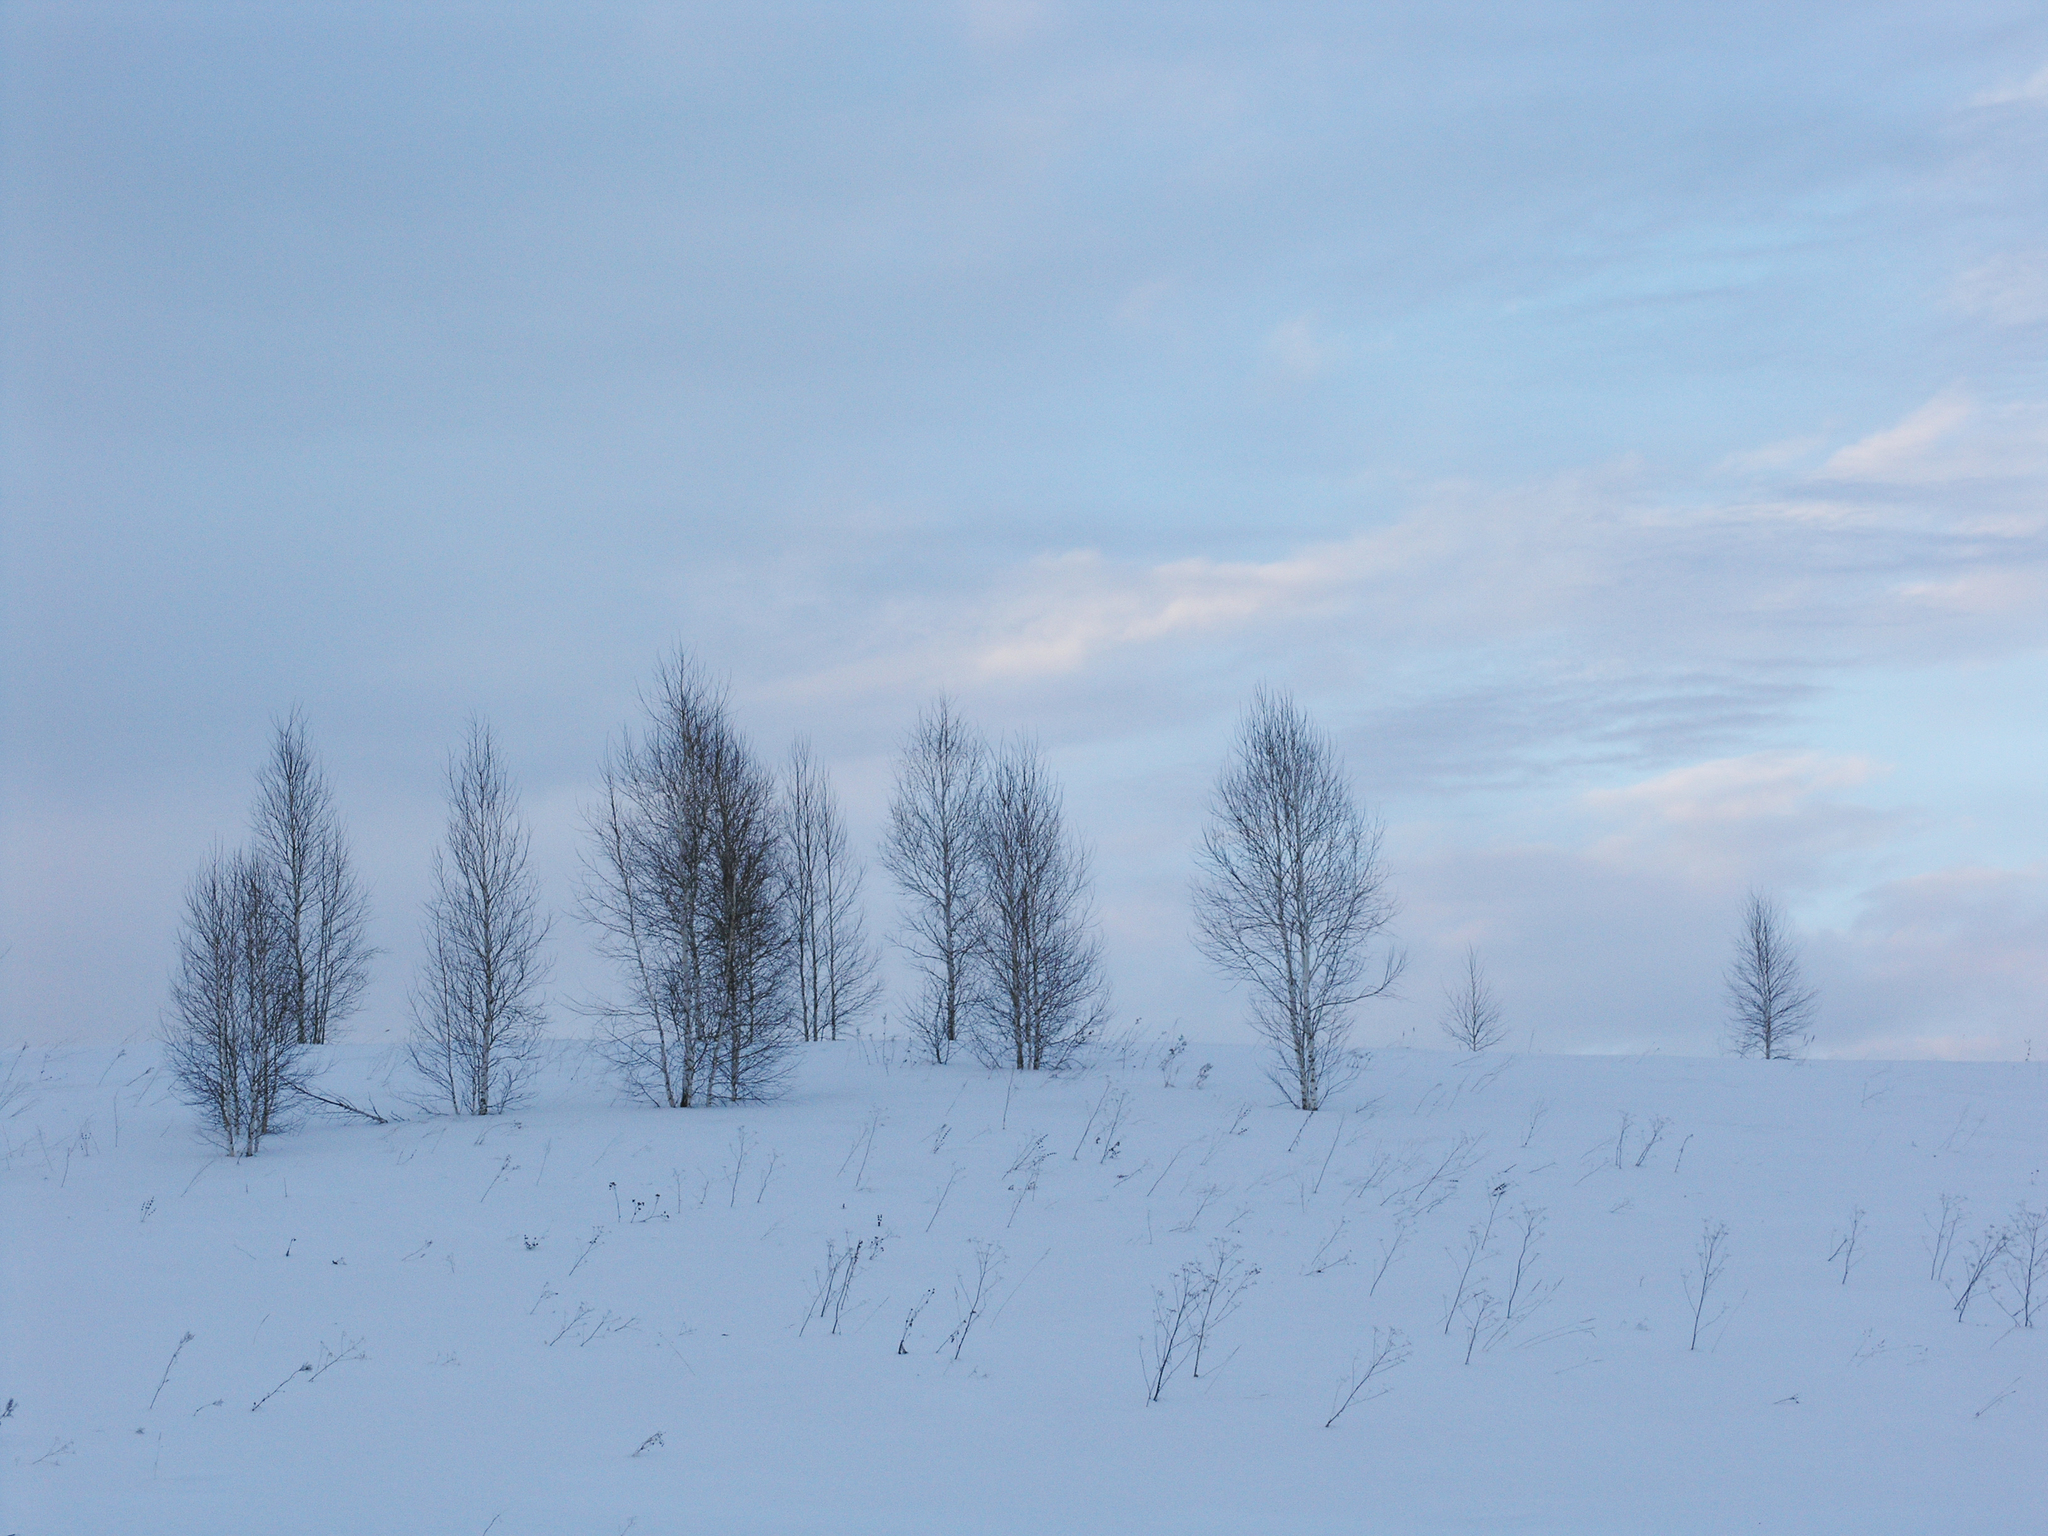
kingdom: Plantae
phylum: Tracheophyta
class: Magnoliopsida
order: Fagales
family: Betulaceae
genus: Betula
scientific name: Betula pendula
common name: Silver birch
